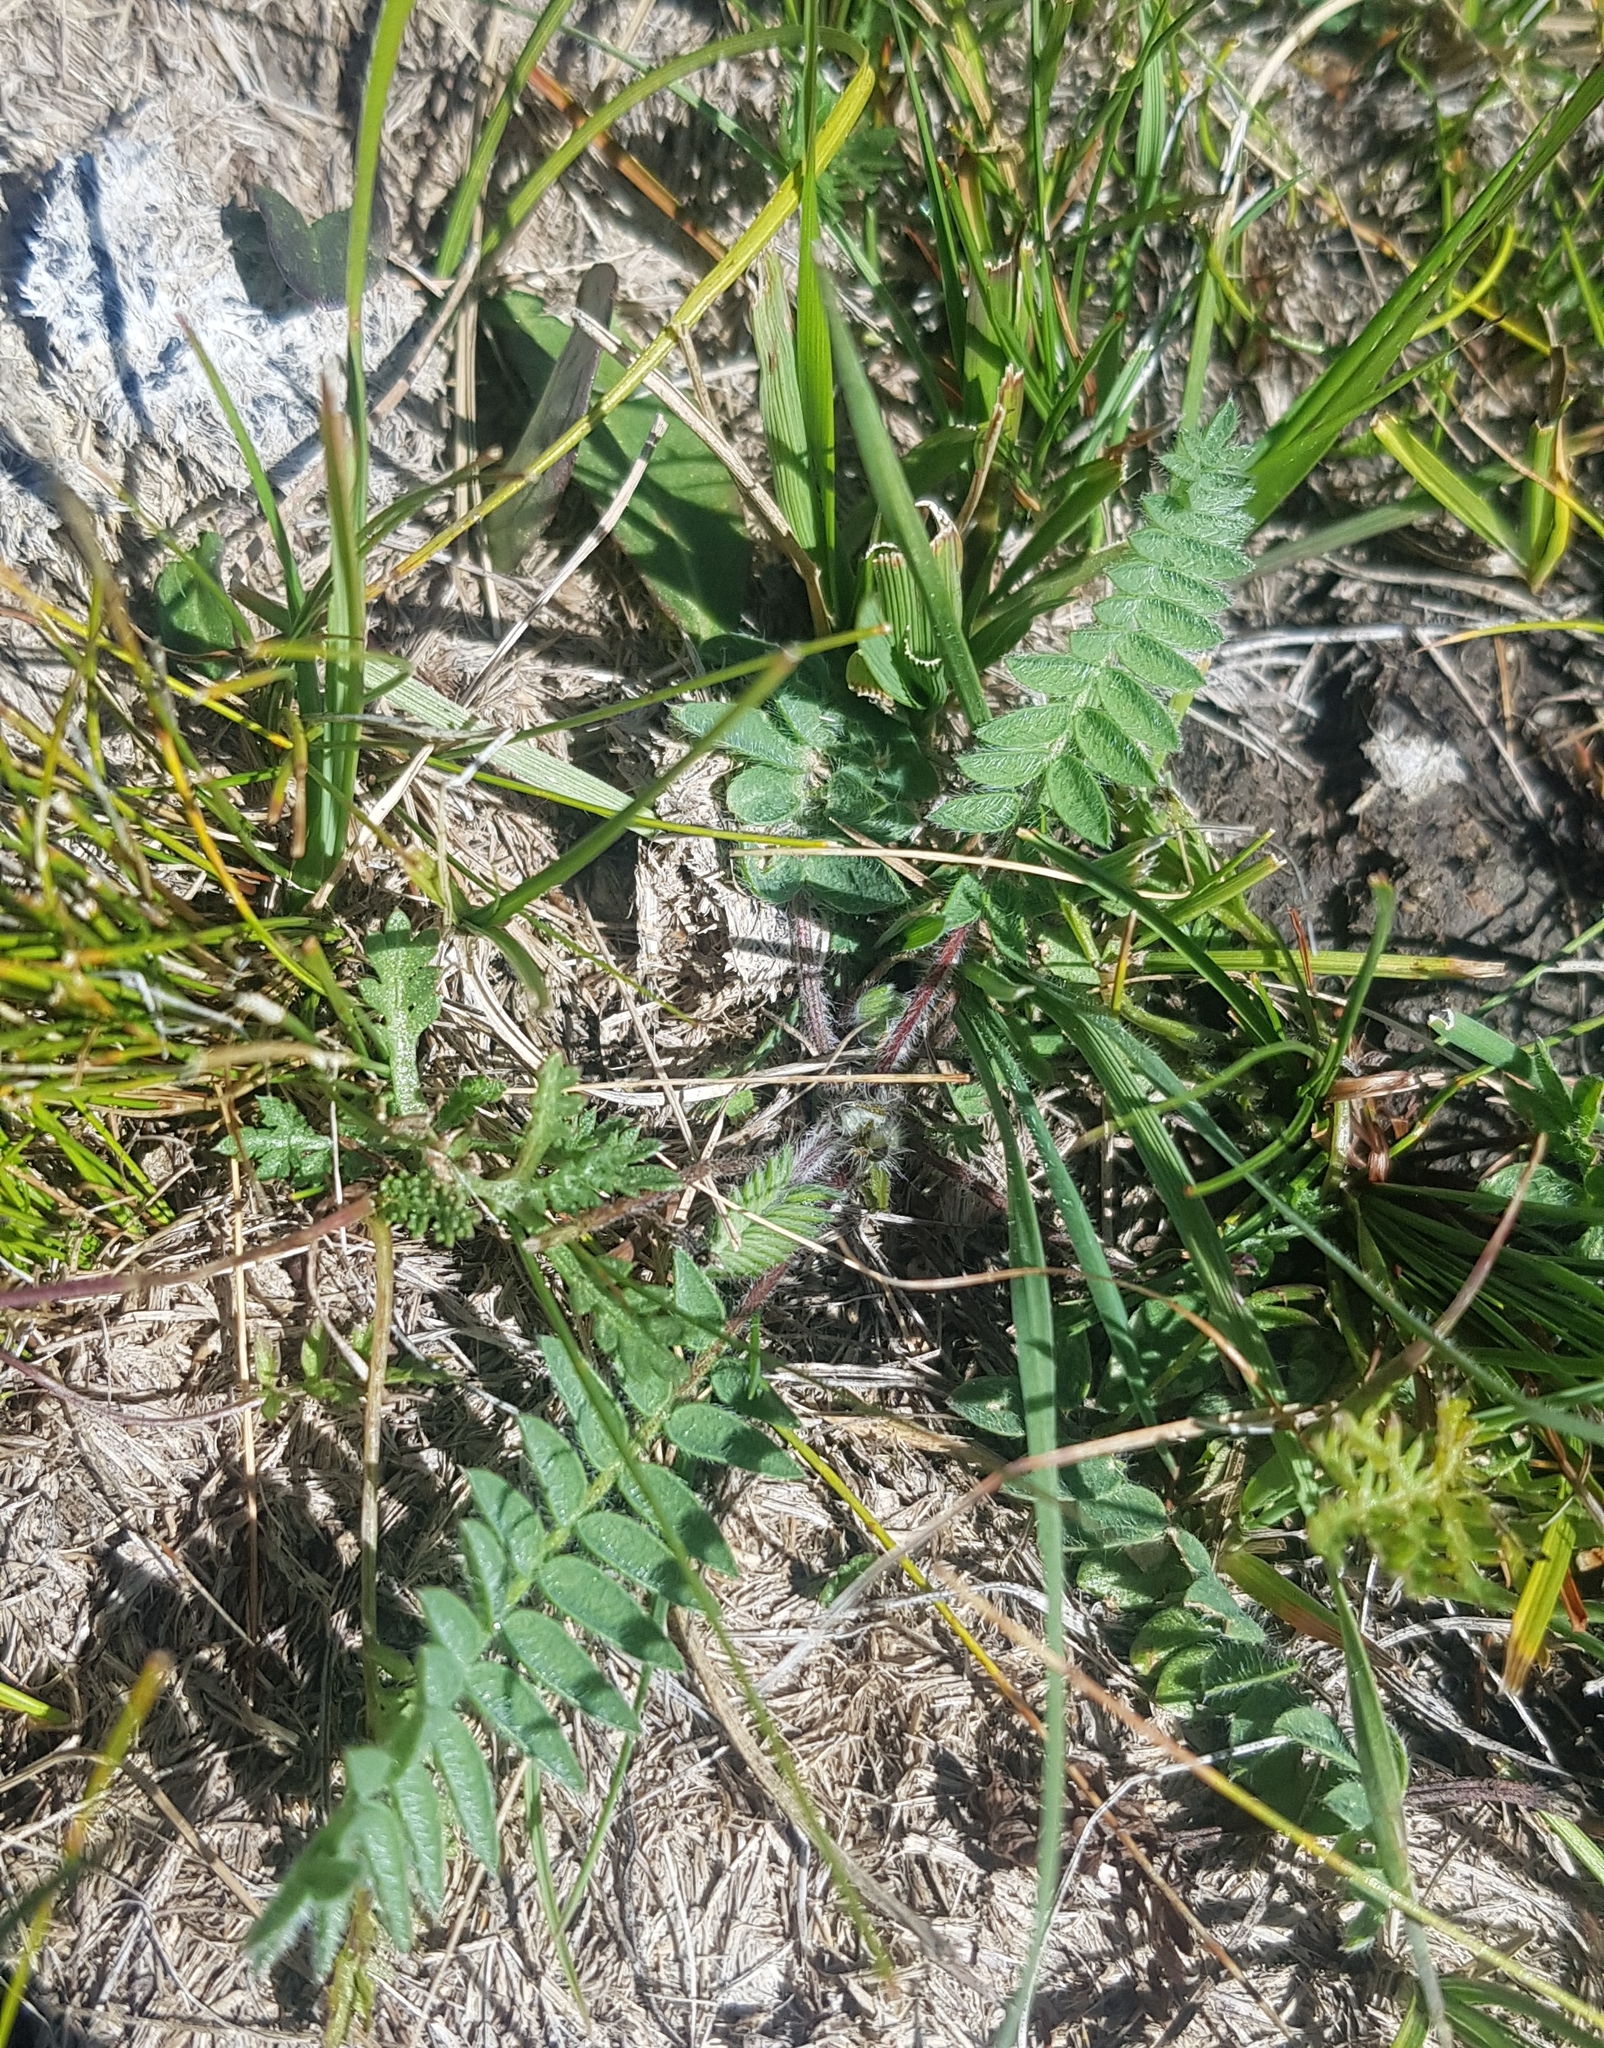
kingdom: Plantae
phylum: Tracheophyta
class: Magnoliopsida
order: Fabales
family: Fabaceae
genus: Oxytropis
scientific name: Oxytropis deflexa
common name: Stemmed oxytrope
